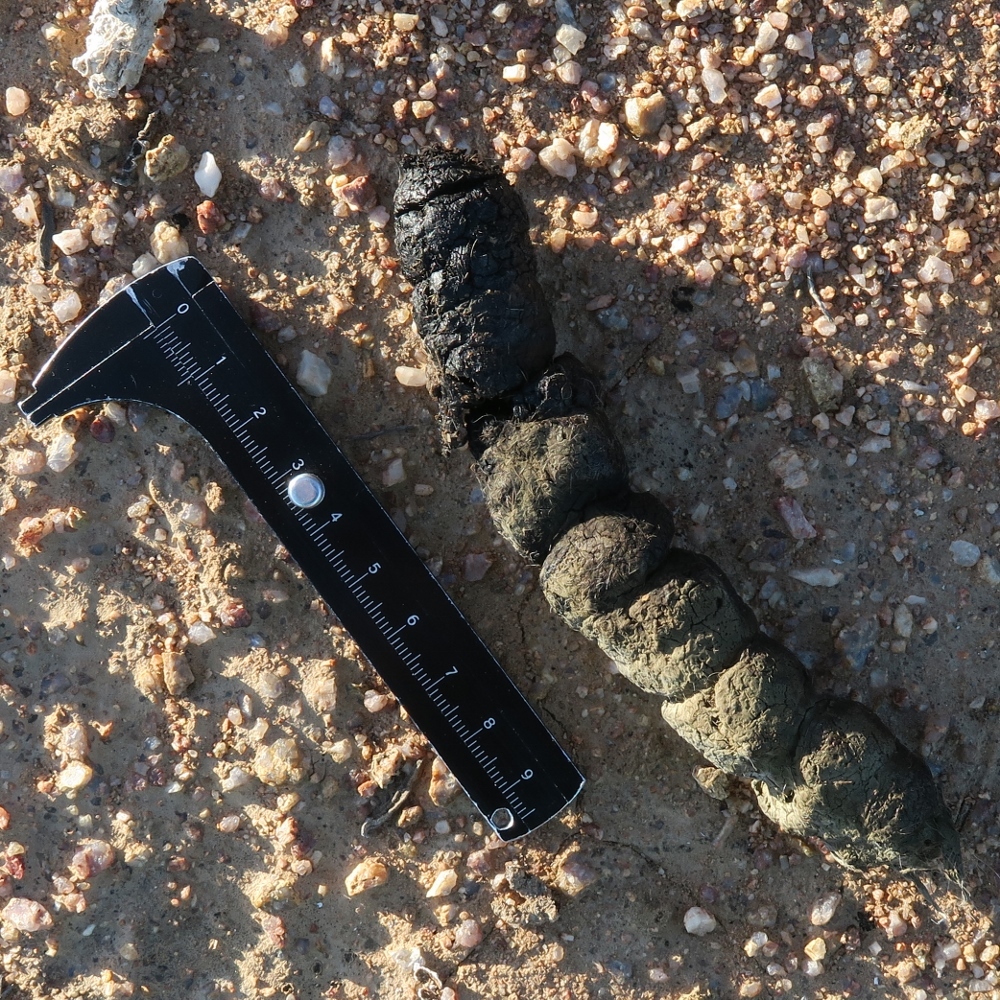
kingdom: Animalia
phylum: Chordata
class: Mammalia
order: Carnivora
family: Felidae
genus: Caracal
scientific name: Caracal caracal
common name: Caracal
